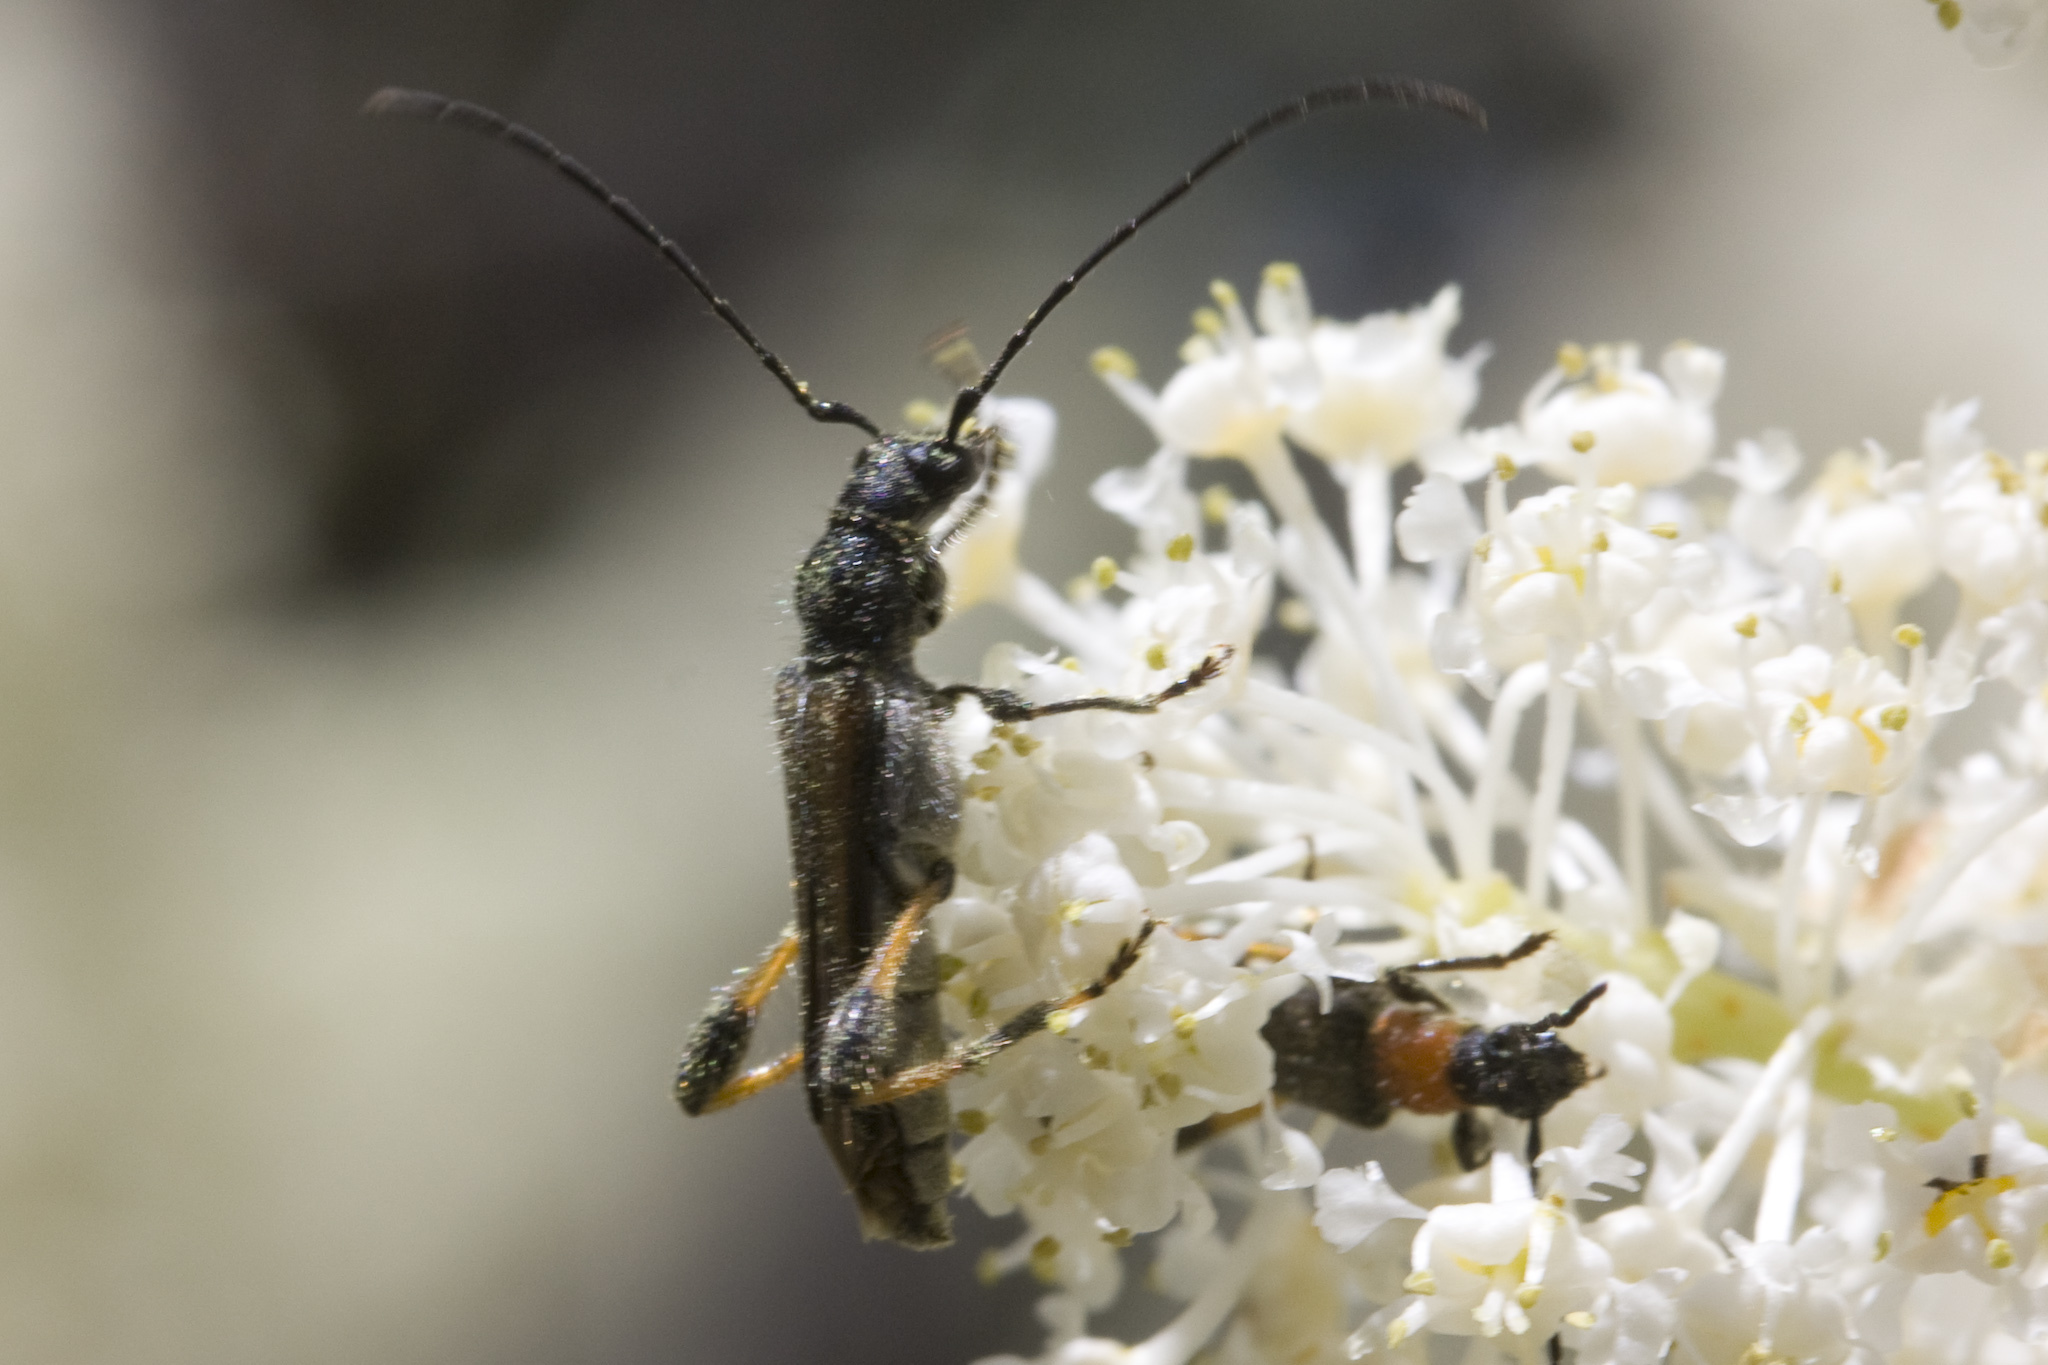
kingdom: Animalia
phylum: Arthropoda
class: Insecta
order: Coleoptera
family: Cerambycidae
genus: Callimoxys
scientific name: Callimoxys fuscipennis
